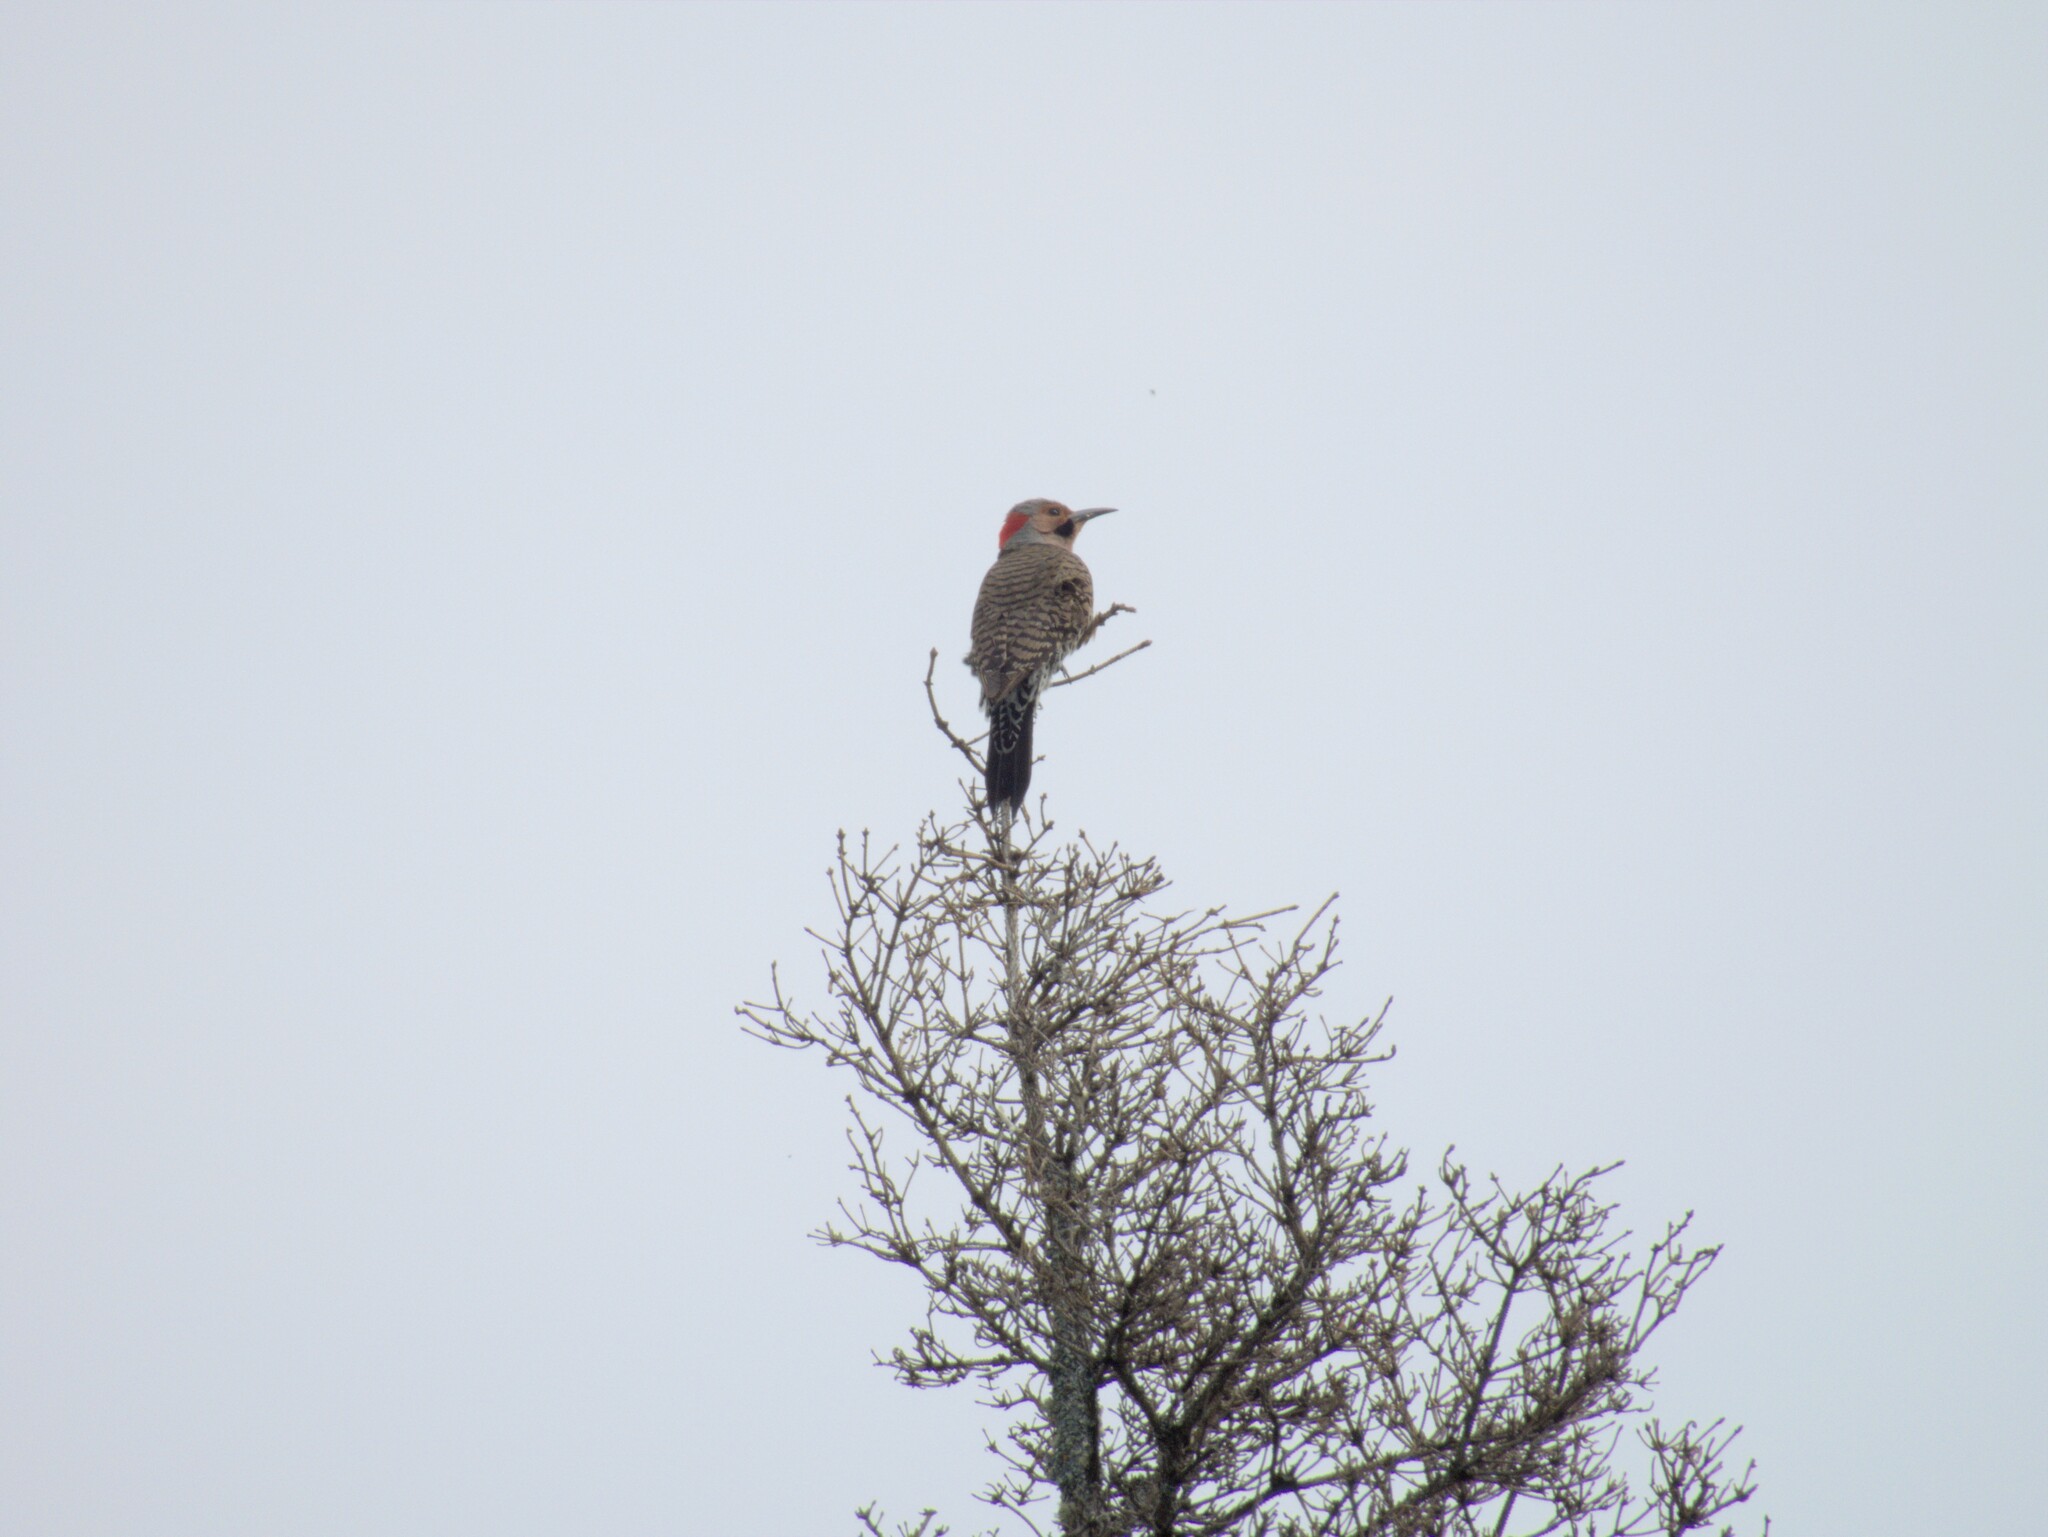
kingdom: Animalia
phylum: Chordata
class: Aves
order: Piciformes
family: Picidae
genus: Colaptes
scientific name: Colaptes auratus
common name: Northern flicker
